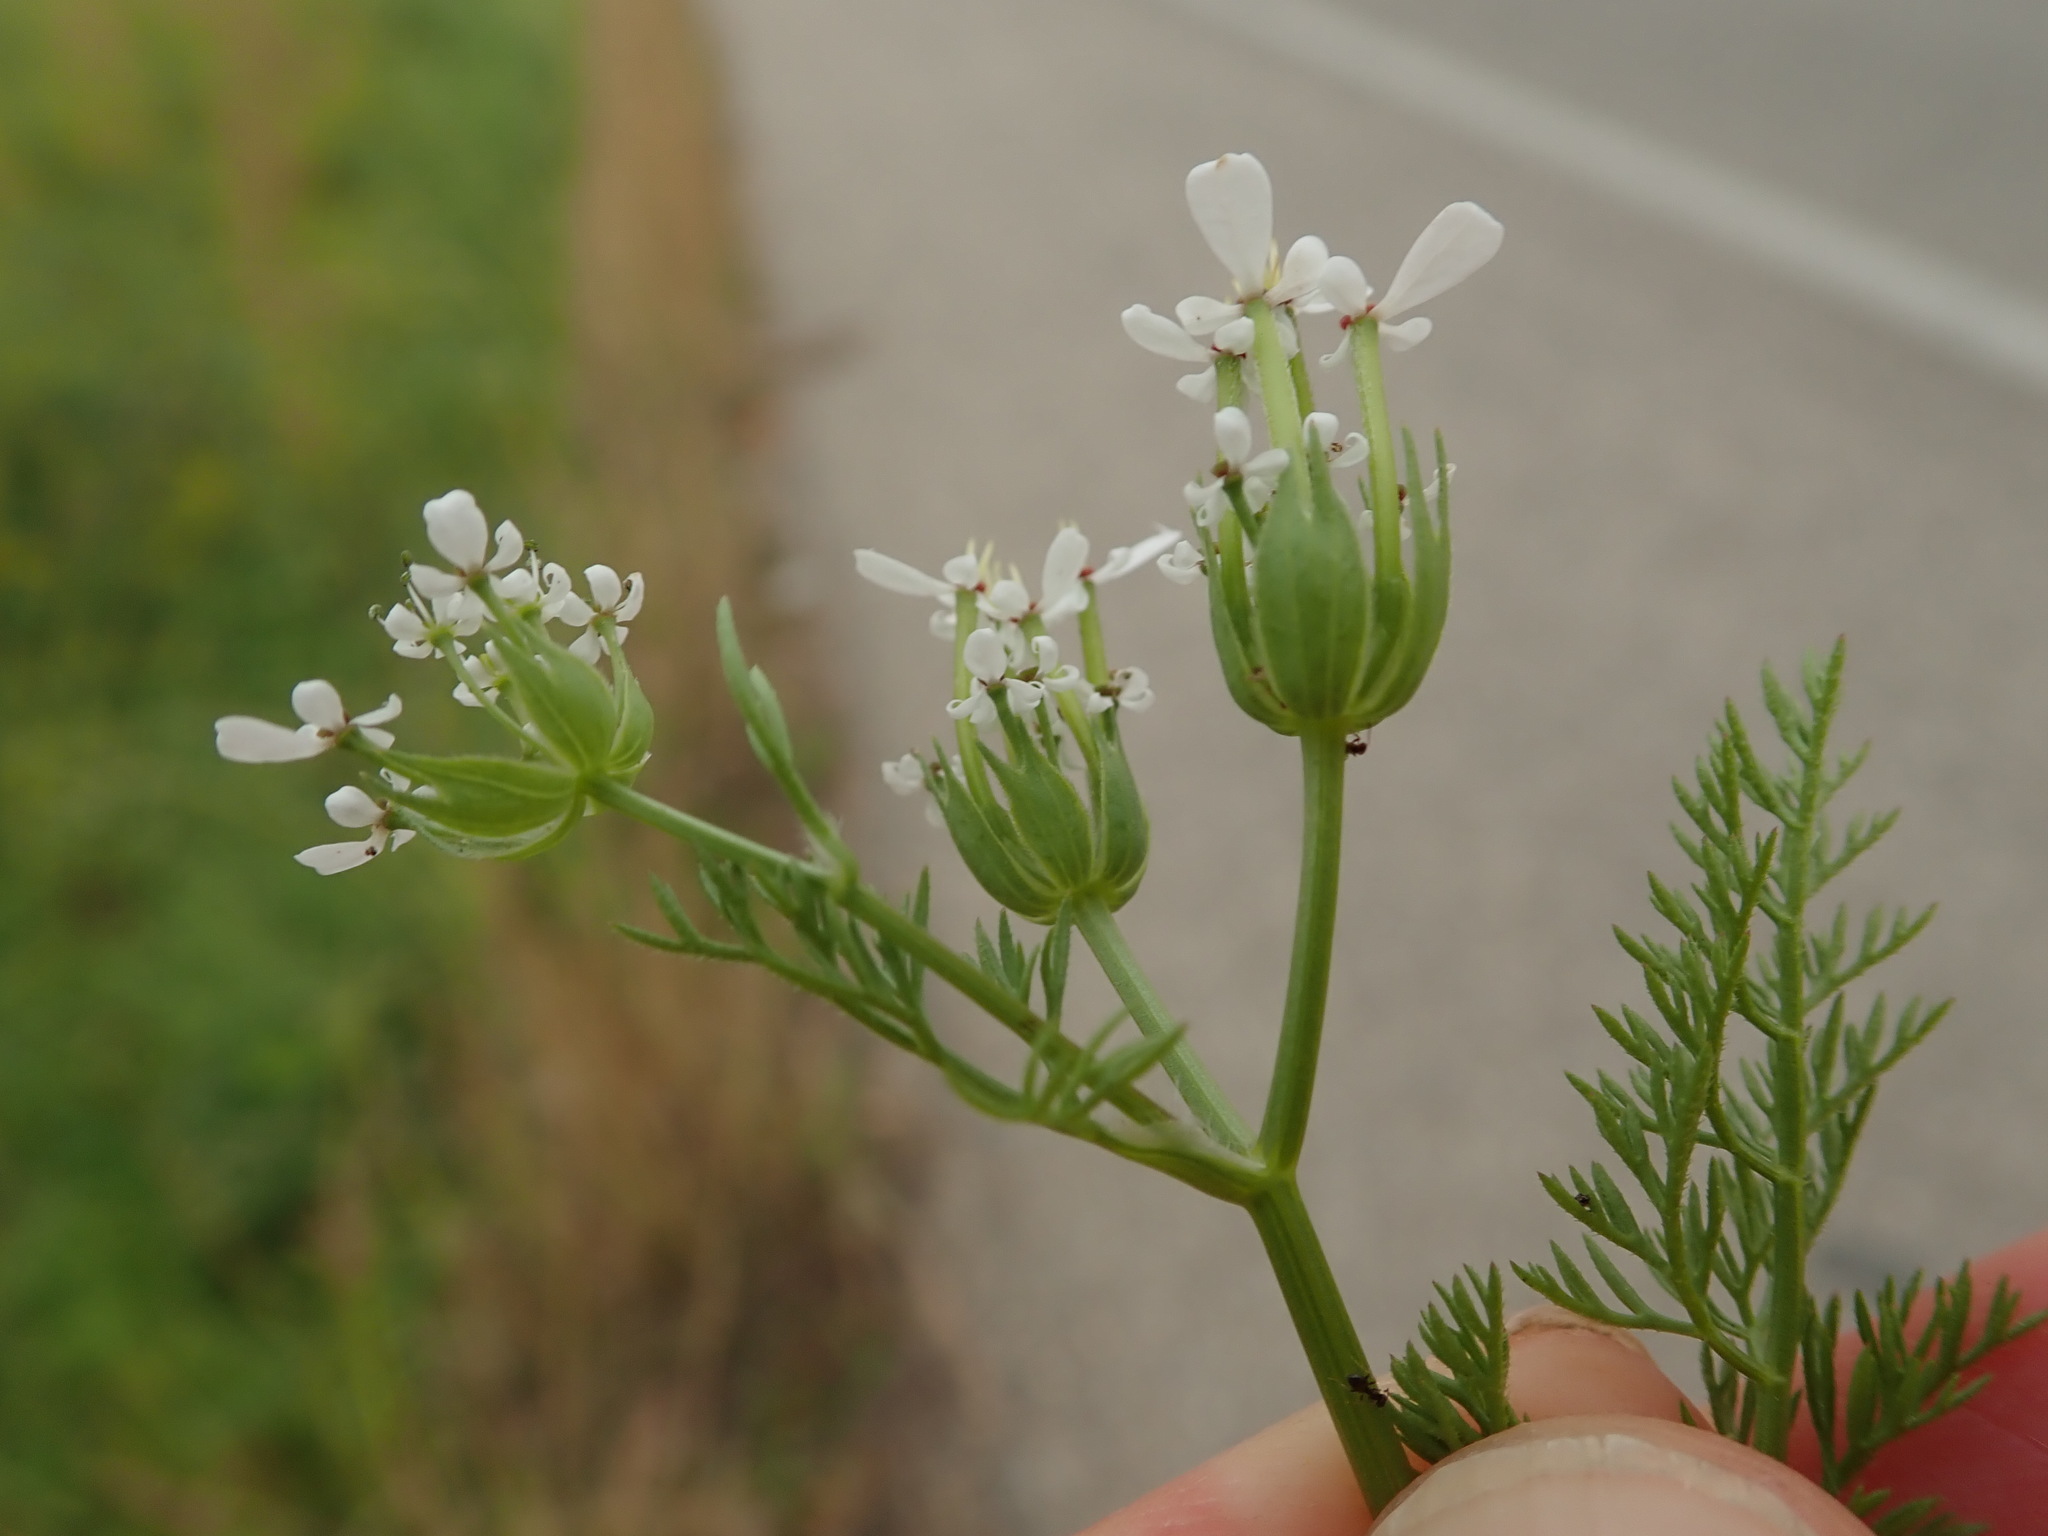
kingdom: Plantae
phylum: Tracheophyta
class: Magnoliopsida
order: Apiales
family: Apiaceae
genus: Scandix
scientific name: Scandix pecten-veneris
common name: Shepherd's-needle
